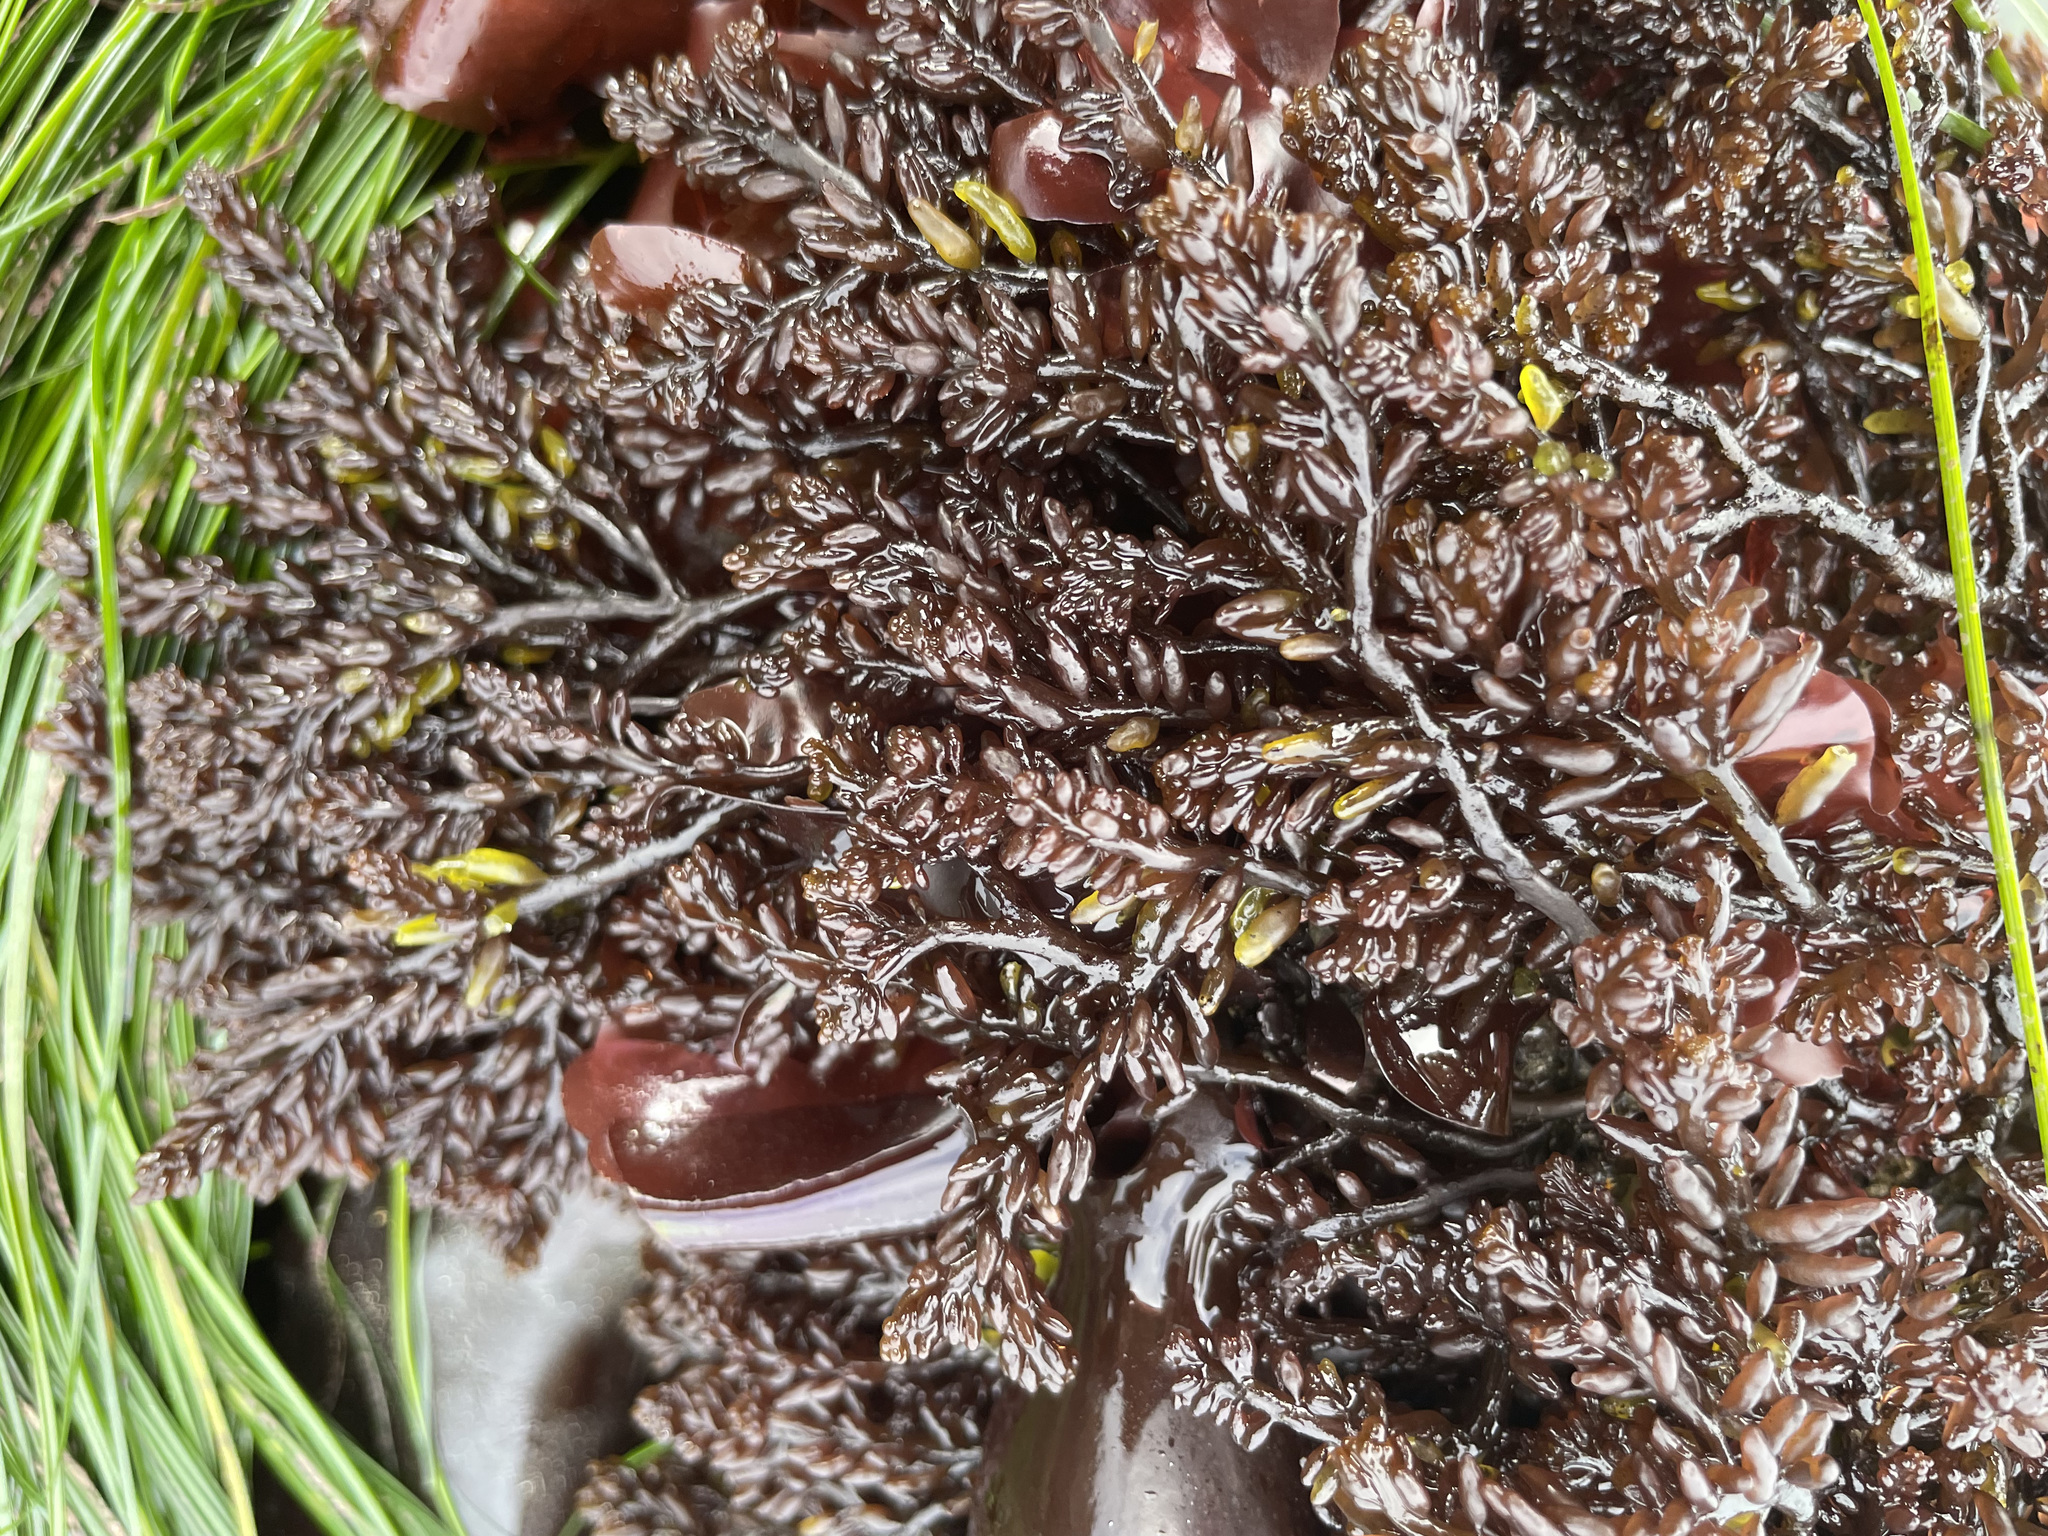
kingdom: Plantae
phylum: Rhodophyta
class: Florideophyceae
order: Rhodymeniales
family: Champiaceae
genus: Neogastroclonium
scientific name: Neogastroclonium subarticulatum
